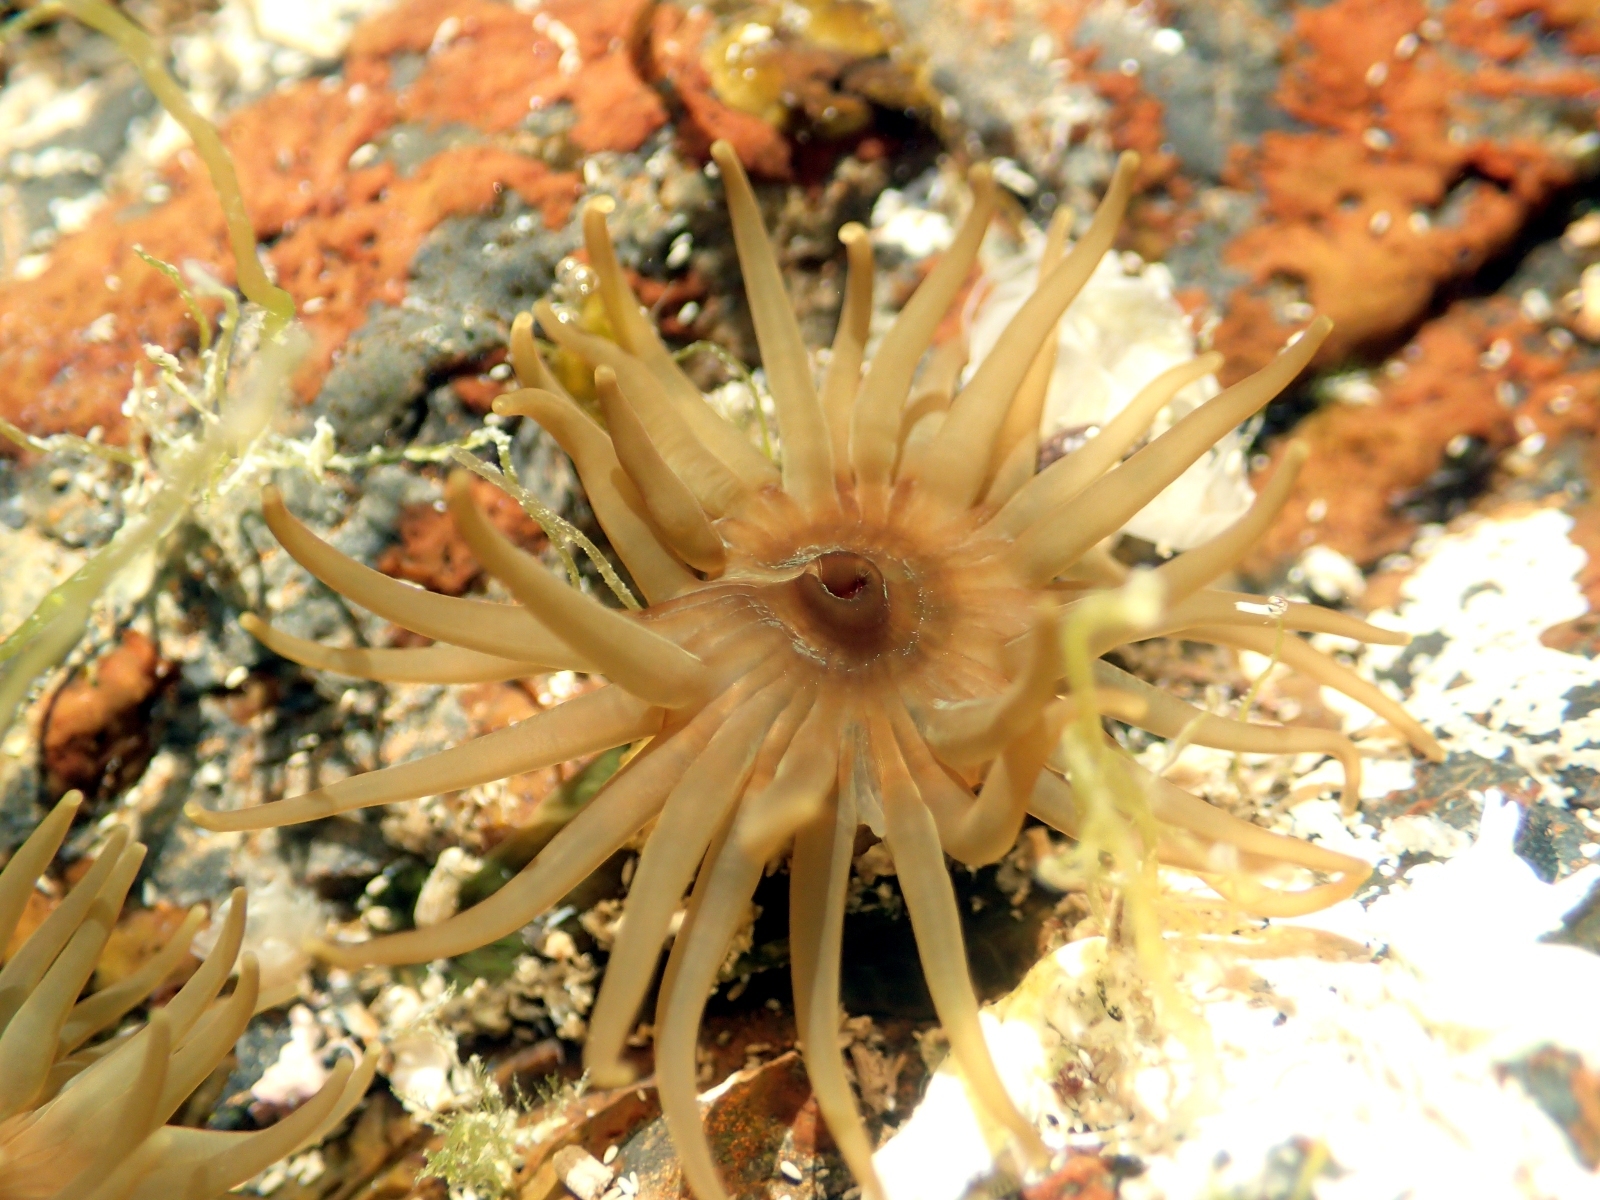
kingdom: Animalia
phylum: Cnidaria
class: Anthozoa
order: Actiniaria
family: Actiniidae
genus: Isactinia
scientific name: Isactinia olivacea
